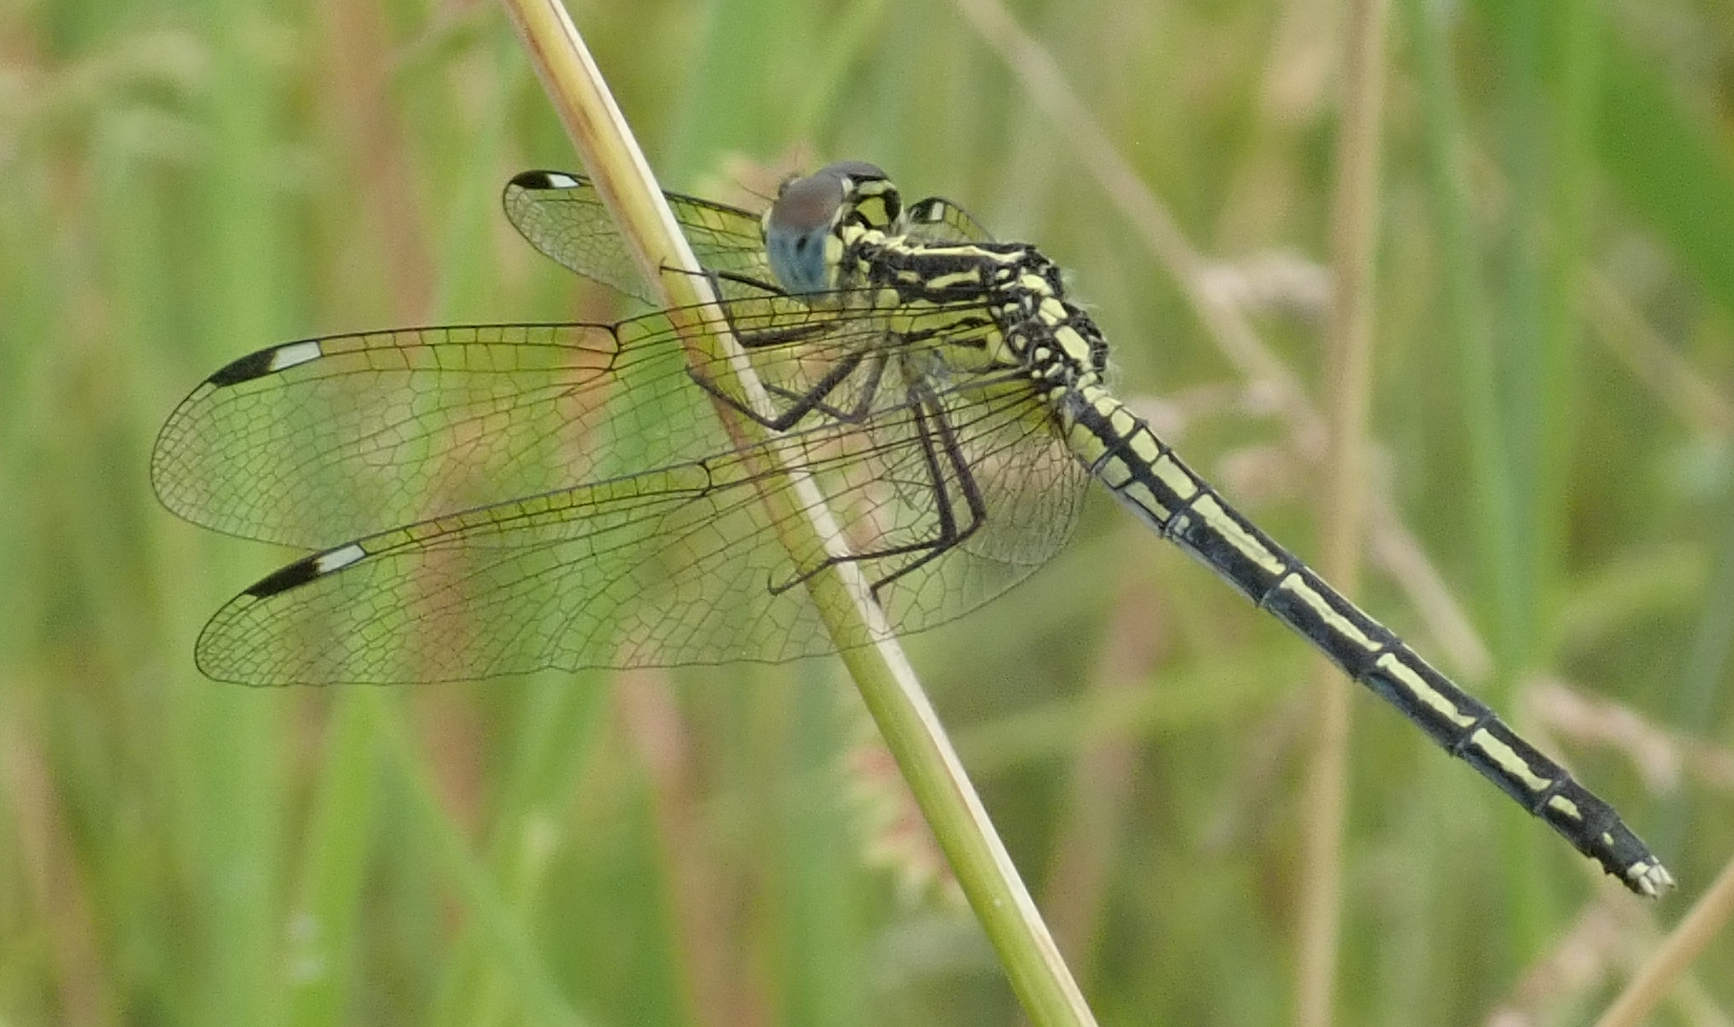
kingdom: Animalia
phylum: Arthropoda
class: Insecta
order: Odonata
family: Libellulidae
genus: Hemistigma
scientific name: Hemistigma albipunctum
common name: African pied-spot
